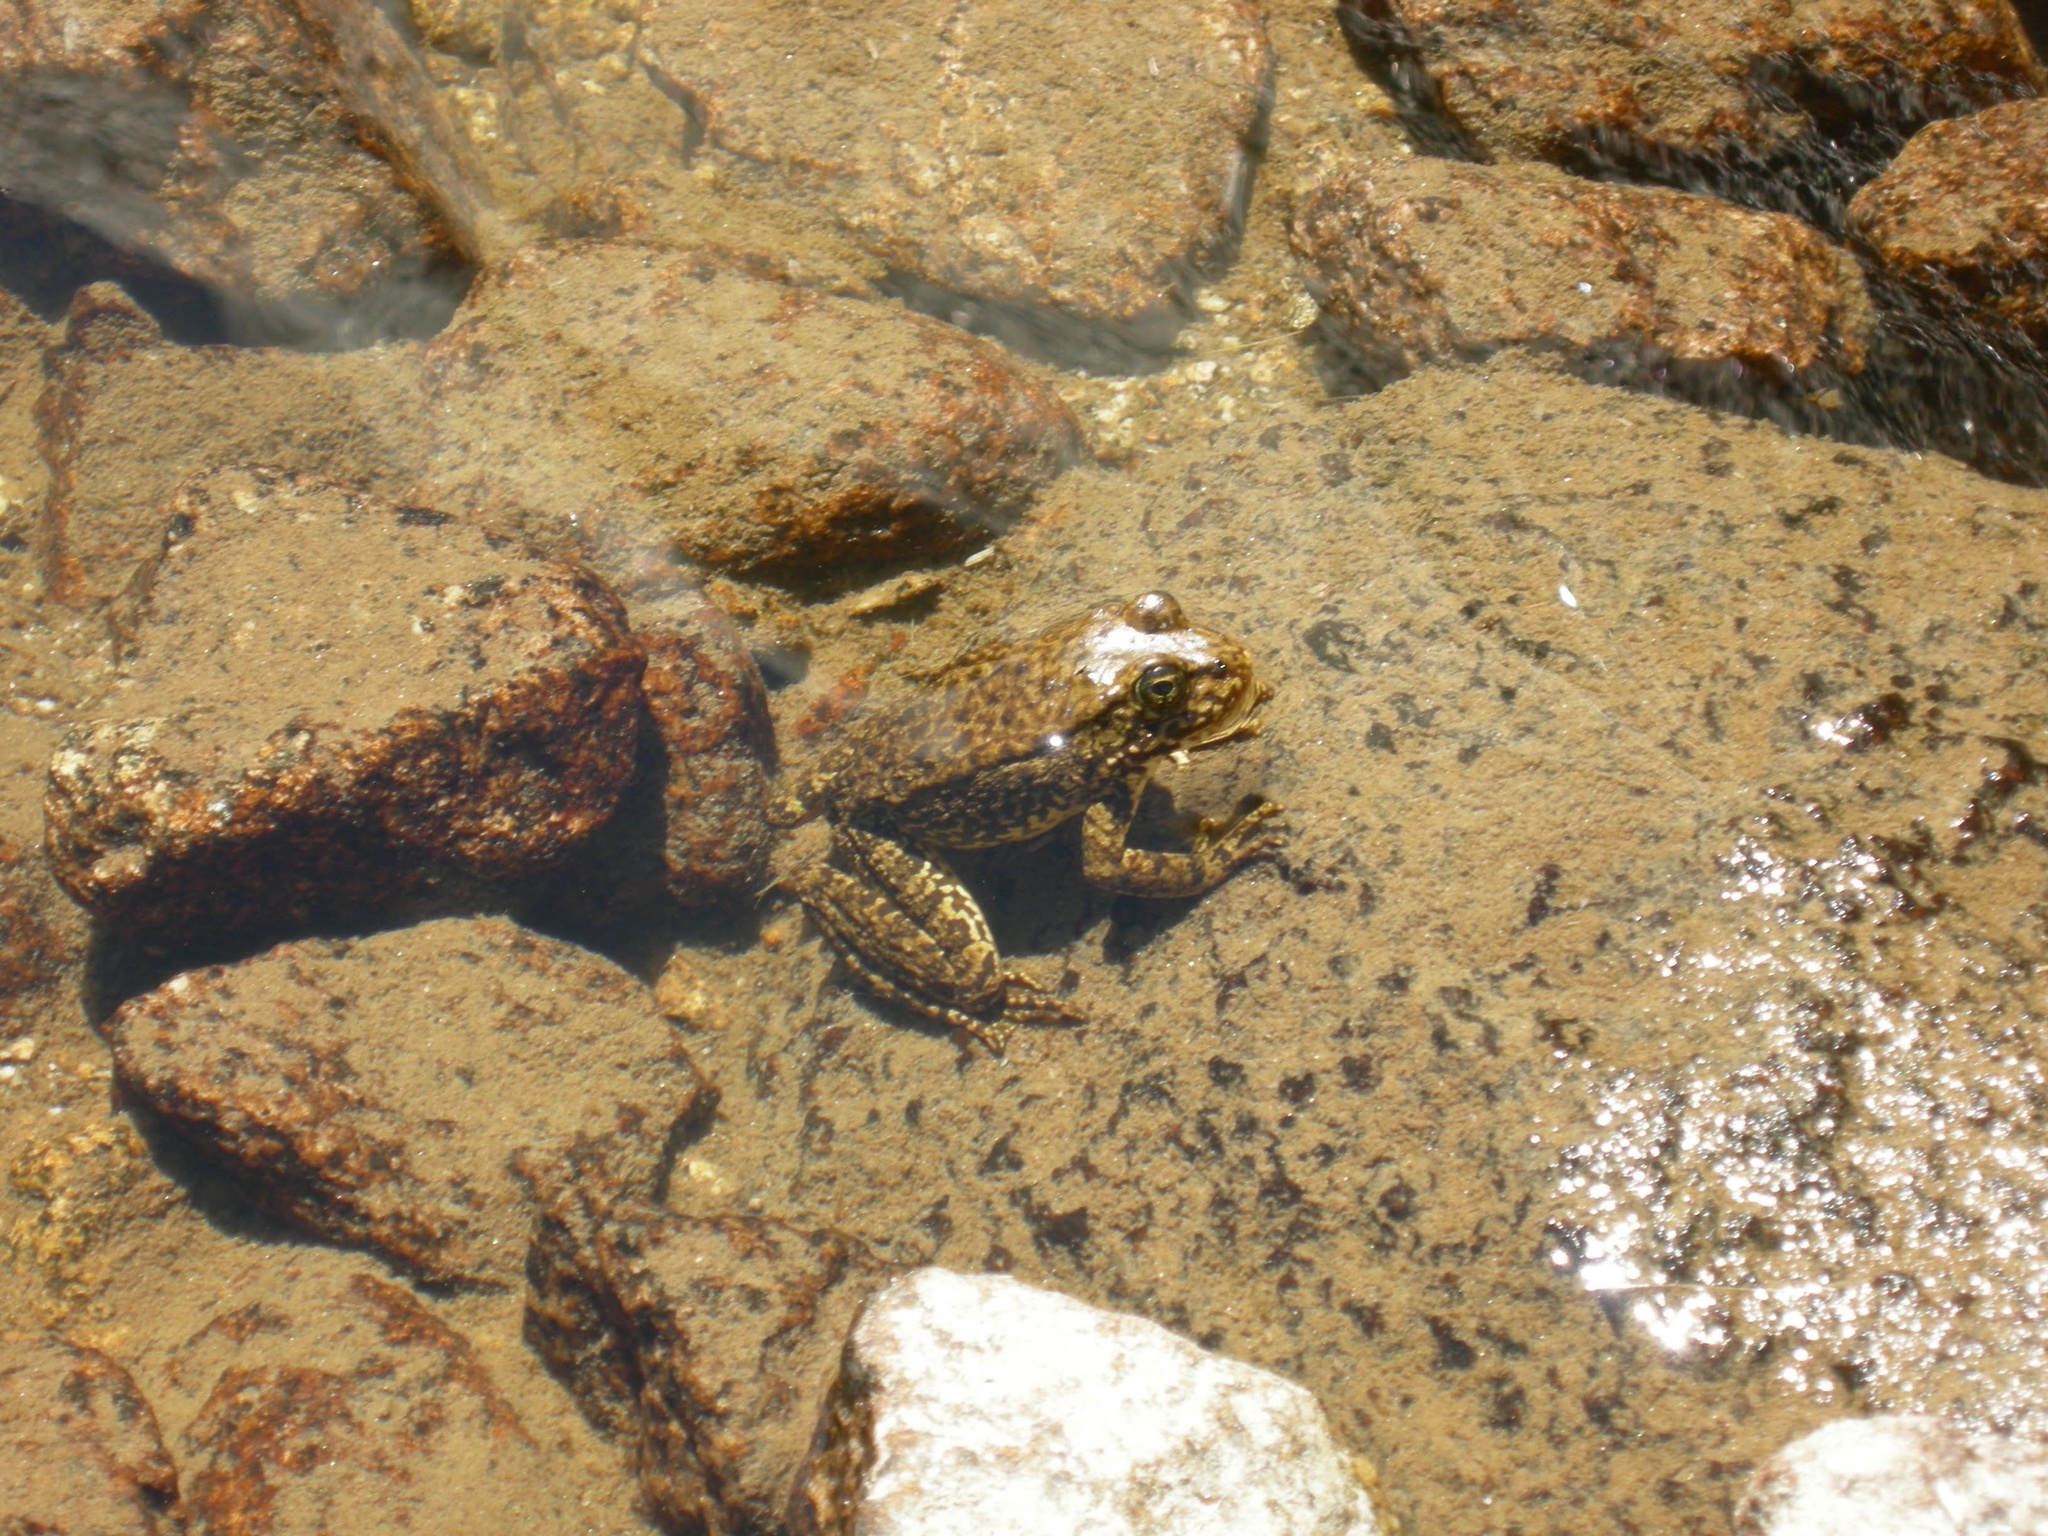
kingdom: Animalia
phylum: Chordata
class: Amphibia
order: Anura
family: Ranidae
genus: Rana
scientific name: Rana sierrae
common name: Sierra nevada yellow-legged frog
